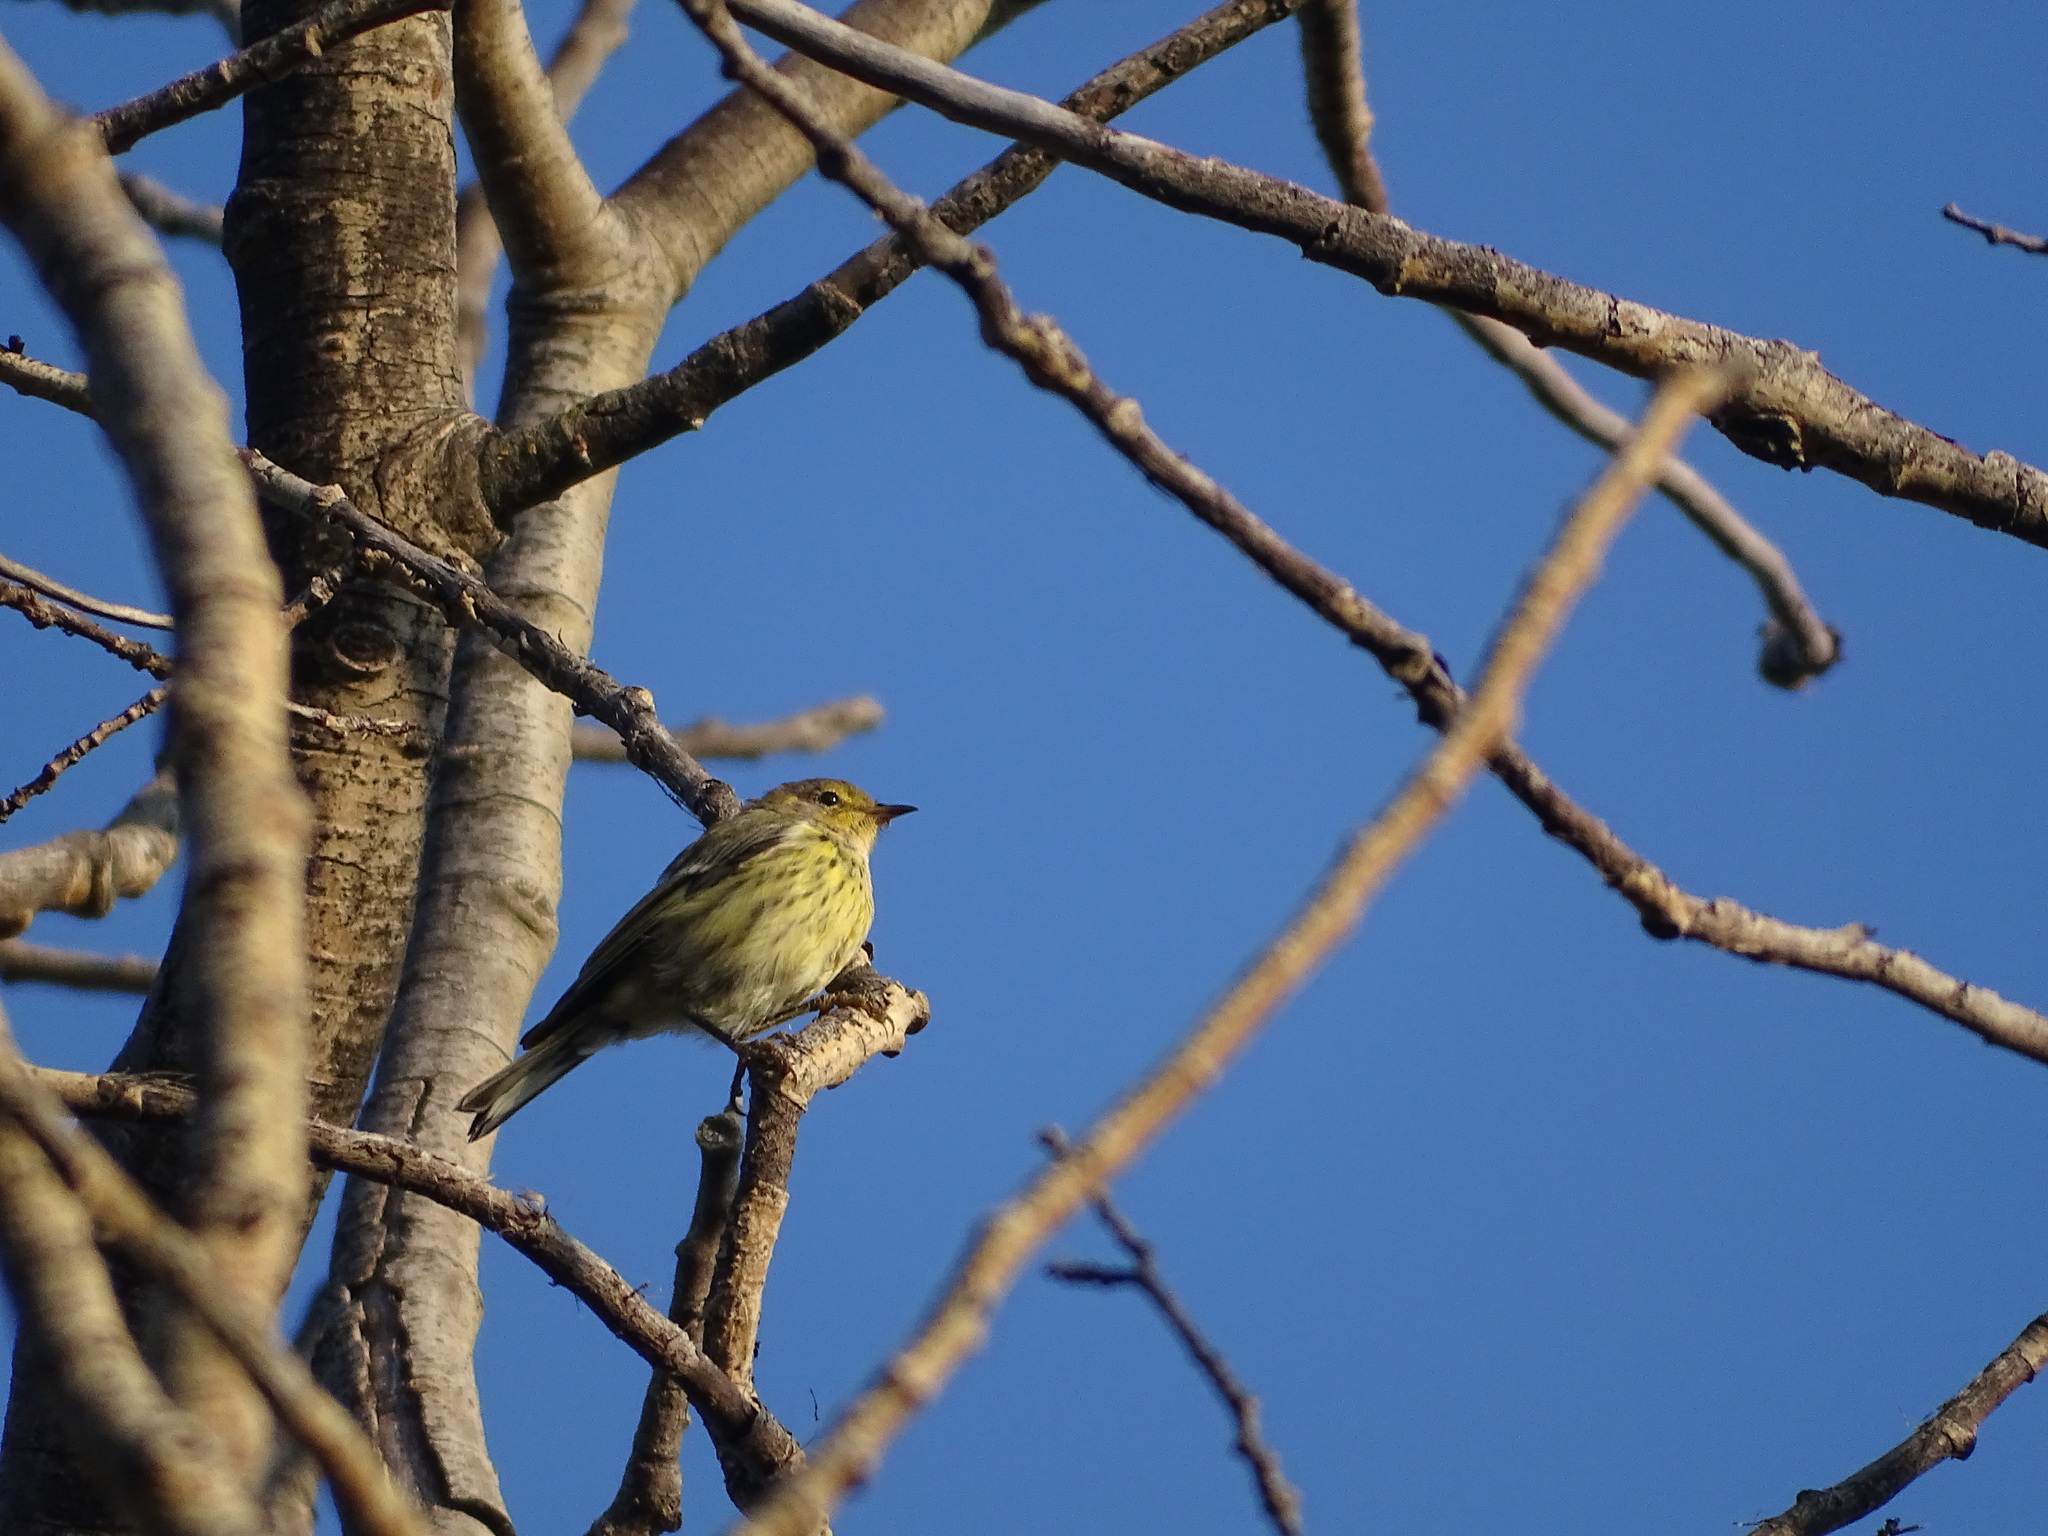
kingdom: Animalia
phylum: Chordata
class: Aves
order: Passeriformes
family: Parulidae
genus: Setophaga
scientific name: Setophaga tigrina
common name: Cape may warbler
